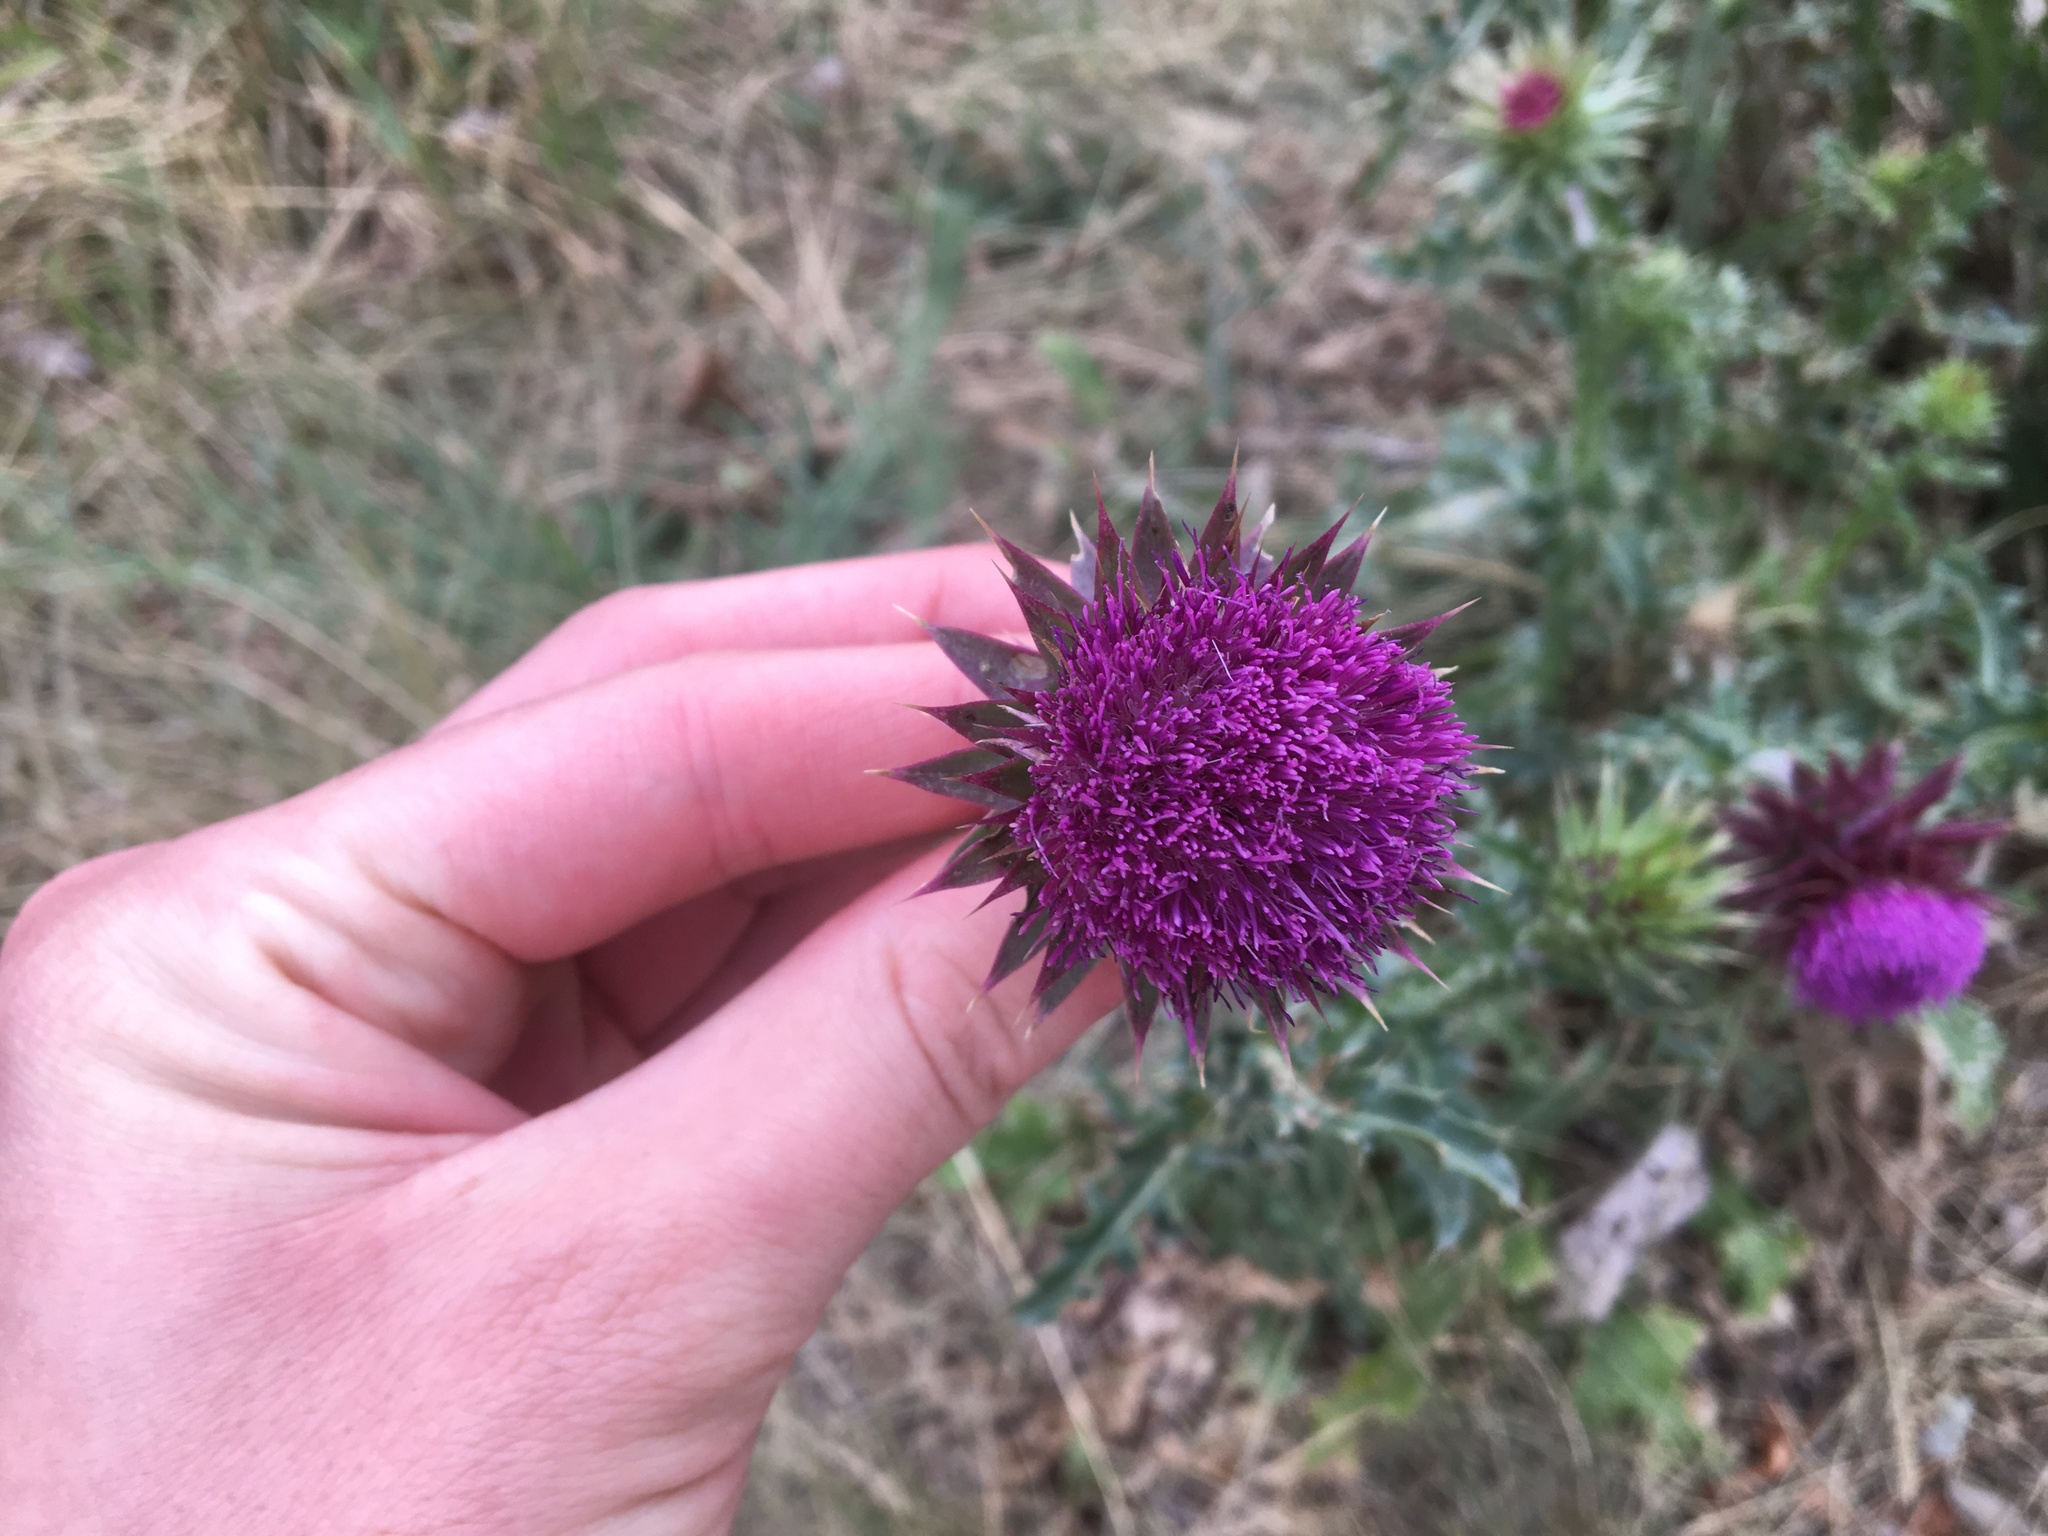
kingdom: Plantae
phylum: Tracheophyta
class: Magnoliopsida
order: Asterales
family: Asteraceae
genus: Carduus
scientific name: Carduus nutans
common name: Musk thistle
